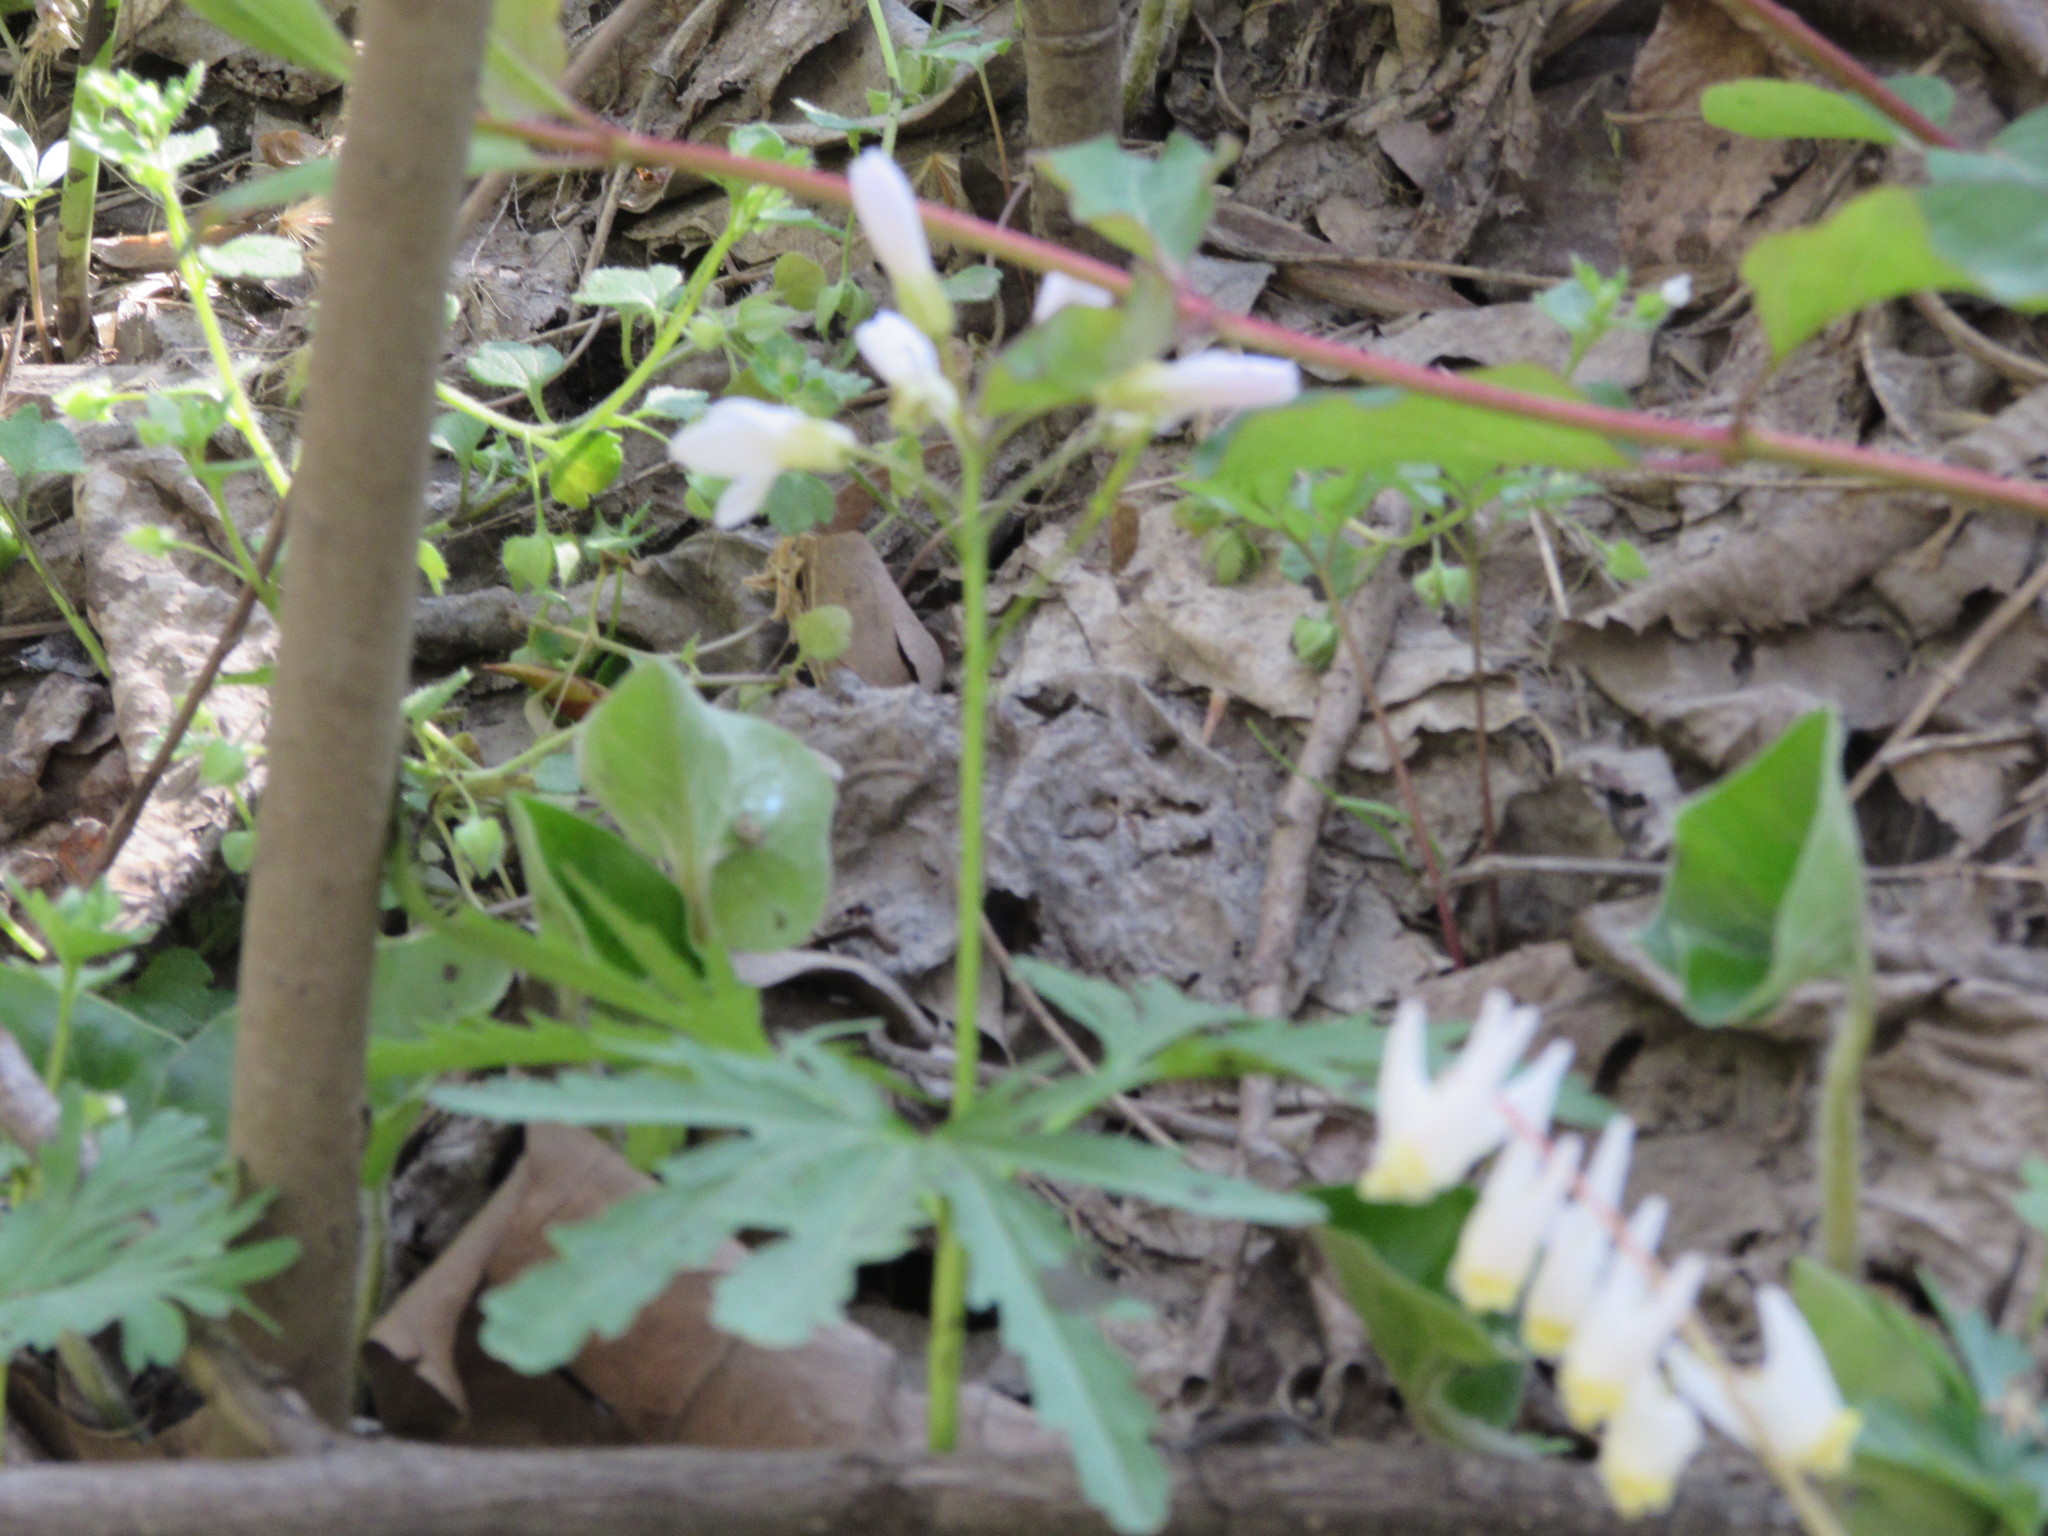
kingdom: Plantae
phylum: Tracheophyta
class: Magnoliopsida
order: Brassicales
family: Brassicaceae
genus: Cardamine
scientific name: Cardamine concatenata
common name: Cut-leaf toothcup
